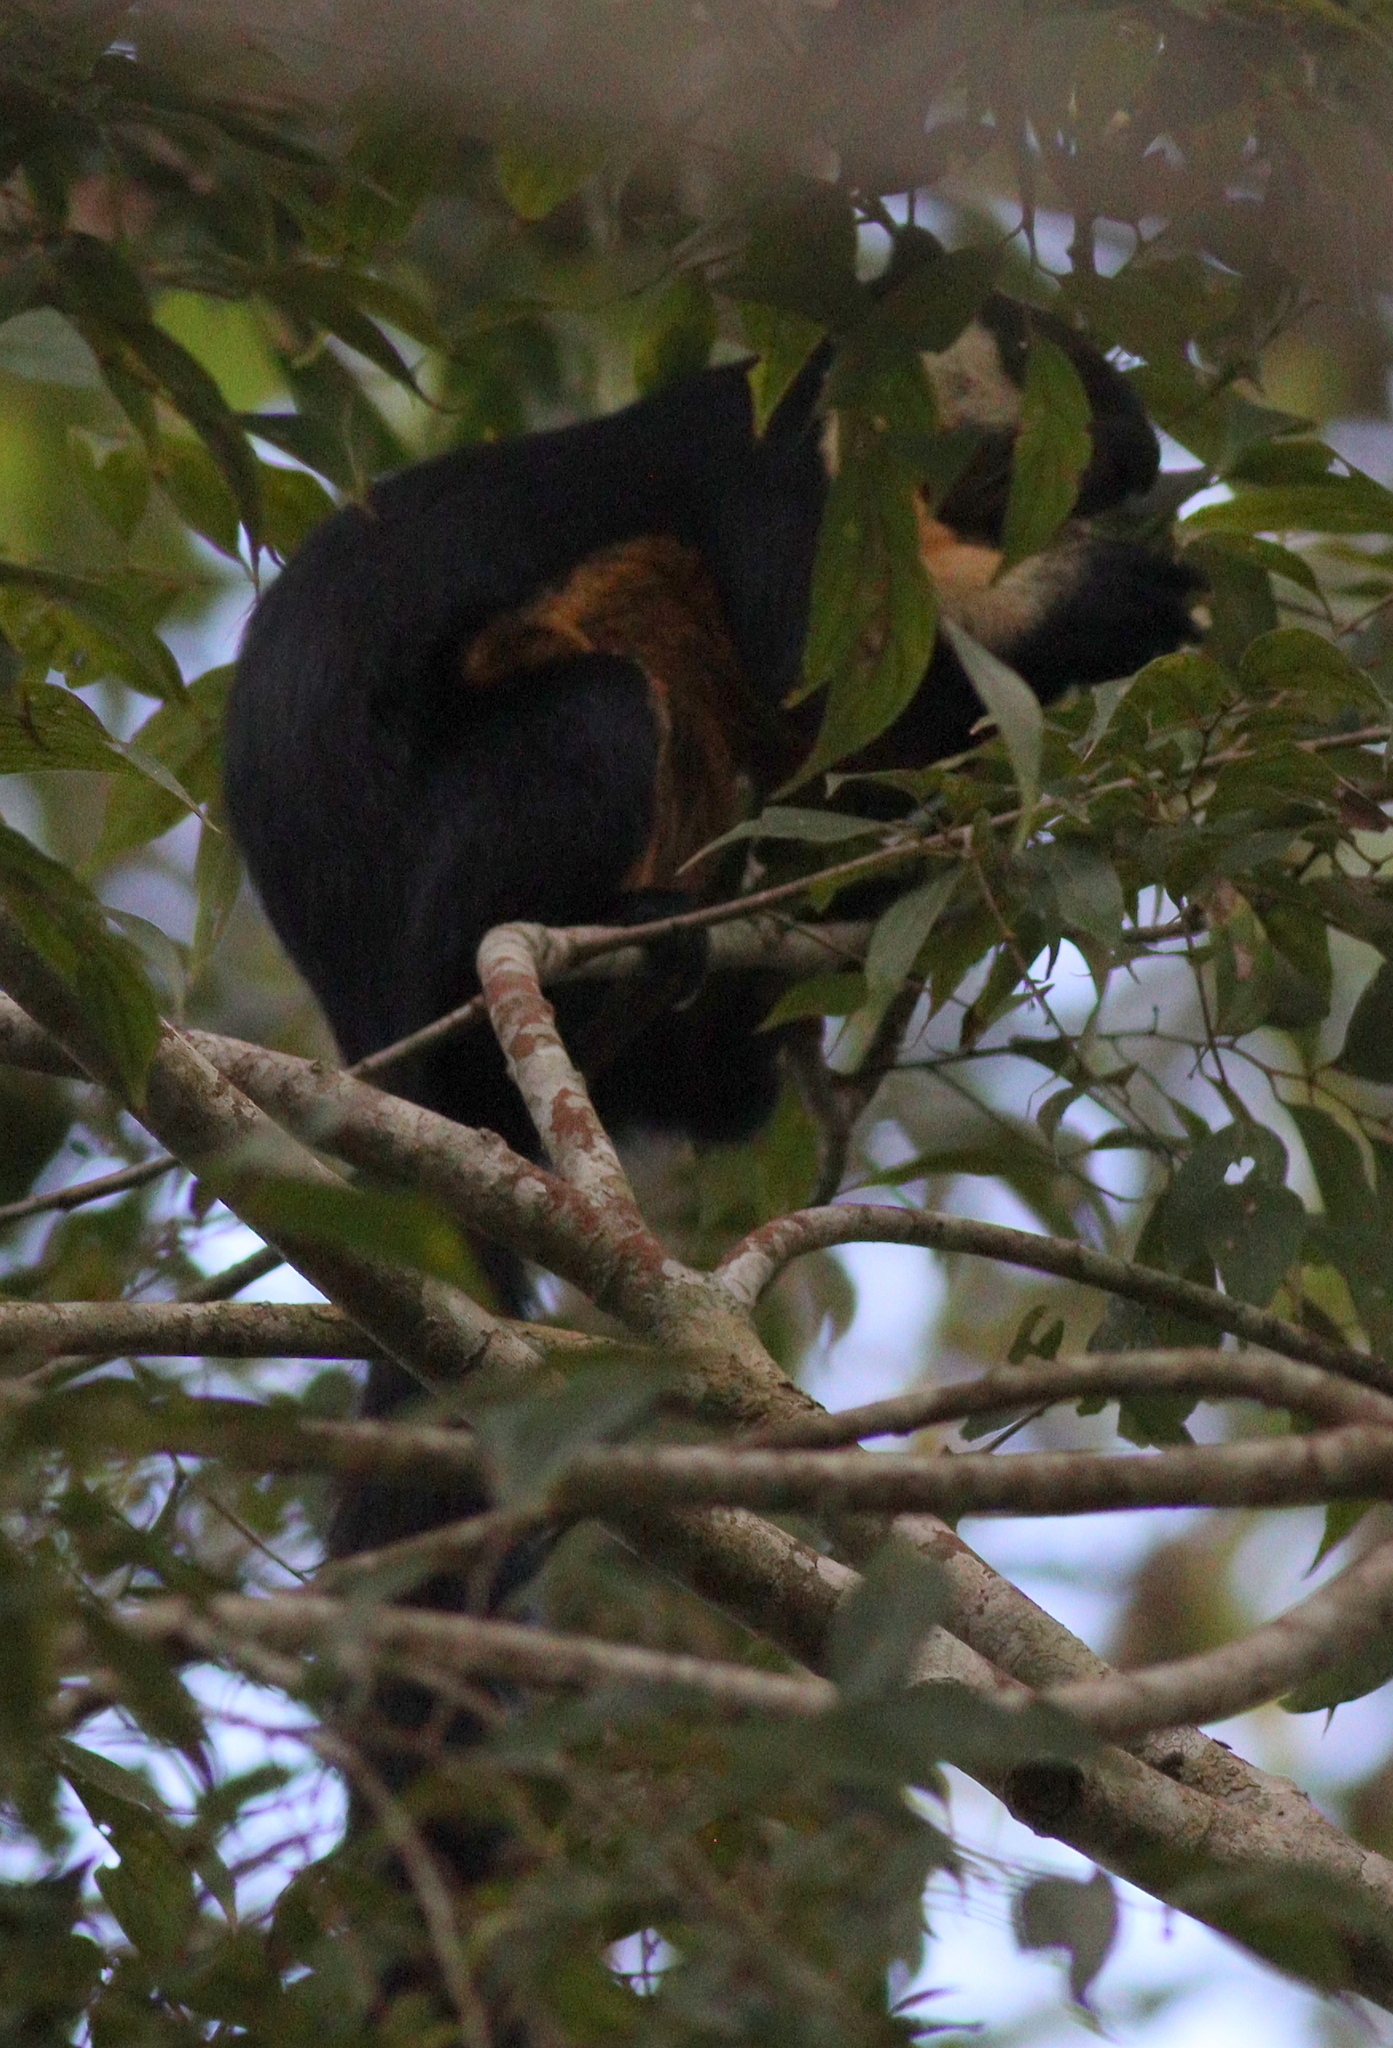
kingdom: Animalia
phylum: Chordata
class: Mammalia
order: Rodentia
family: Sciuridae
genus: Ratufa
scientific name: Ratufa bicolor
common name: Black giant squirrel
